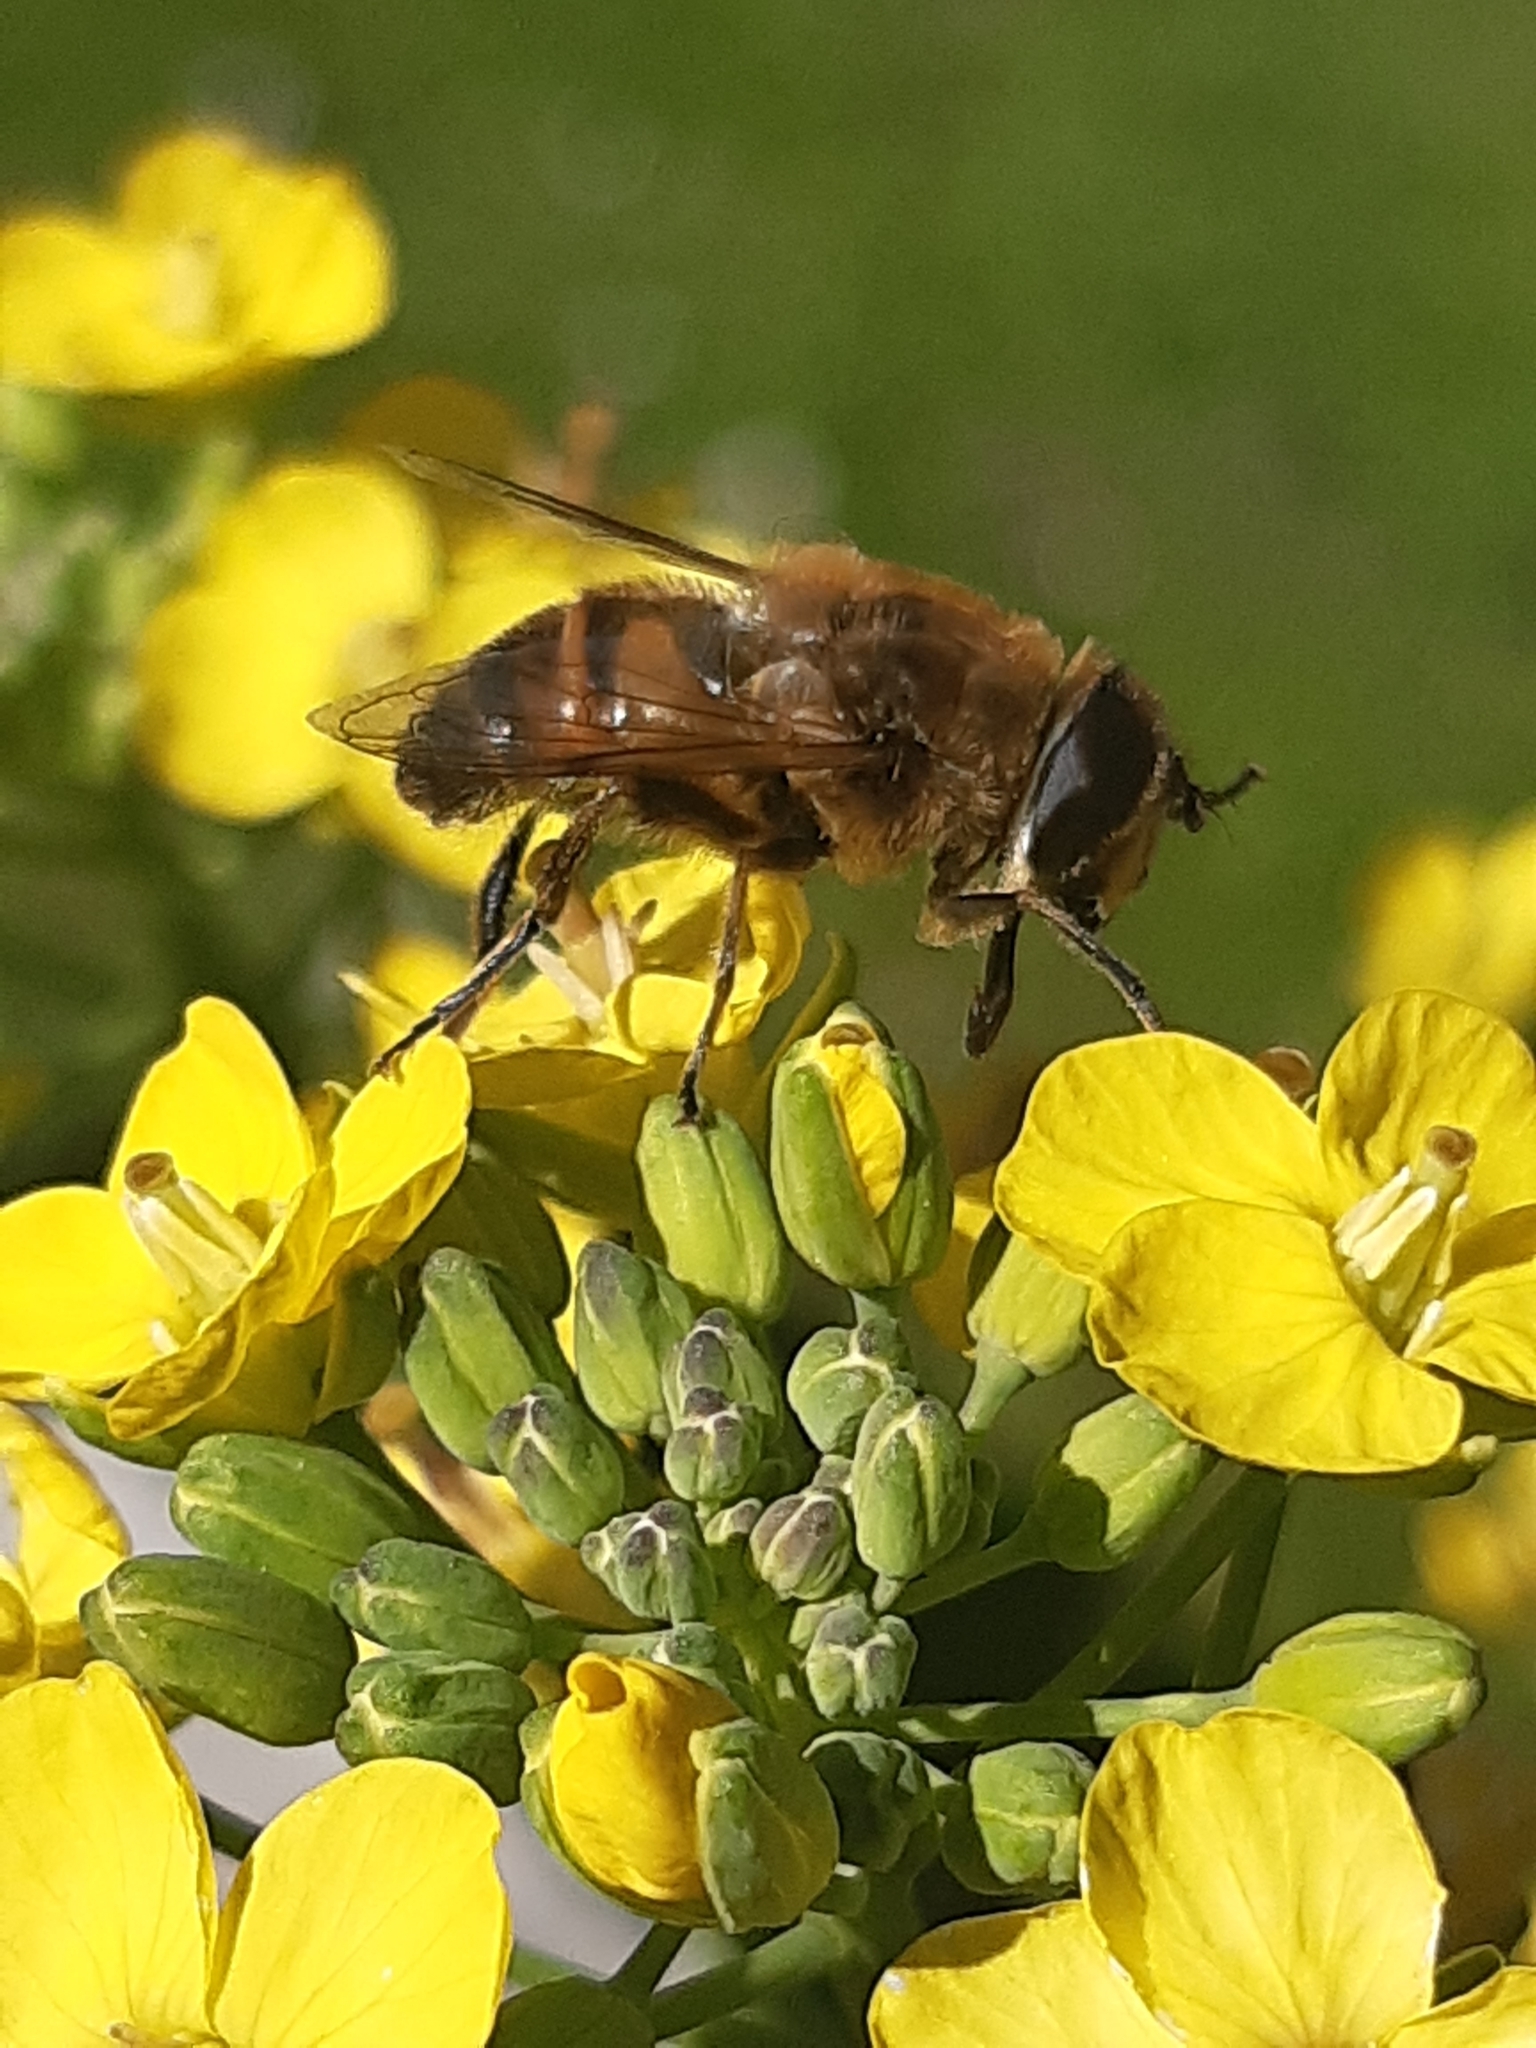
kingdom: Animalia
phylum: Arthropoda
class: Insecta
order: Diptera
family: Syrphidae
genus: Eristalis
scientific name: Eristalis tenax
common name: Drone fly
